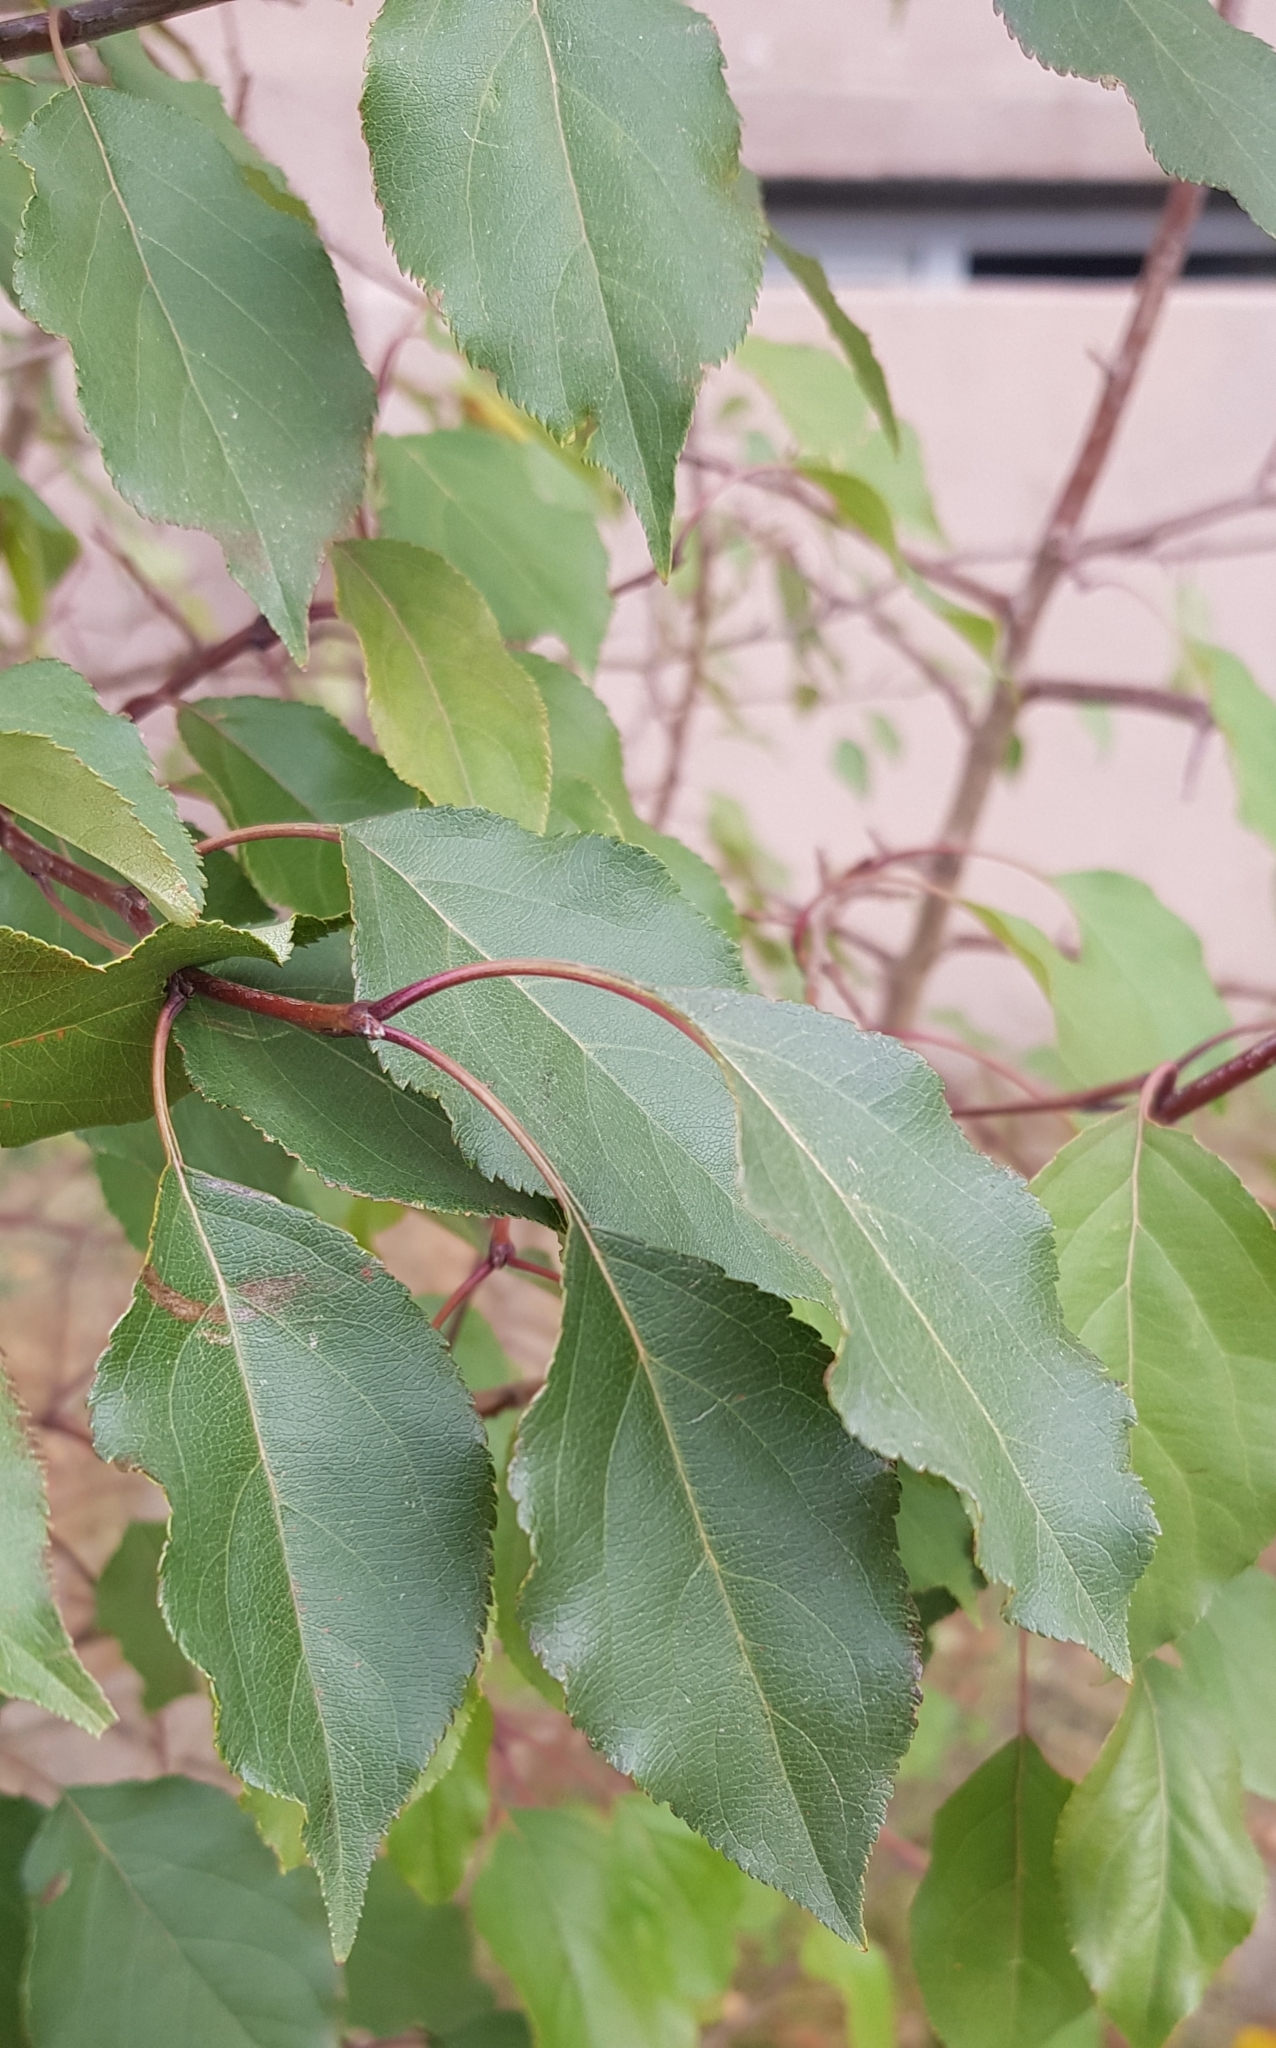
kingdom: Plantae
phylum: Tracheophyta
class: Magnoliopsida
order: Rosales
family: Rosaceae
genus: Malus
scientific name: Malus baccata
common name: Siberian crab
